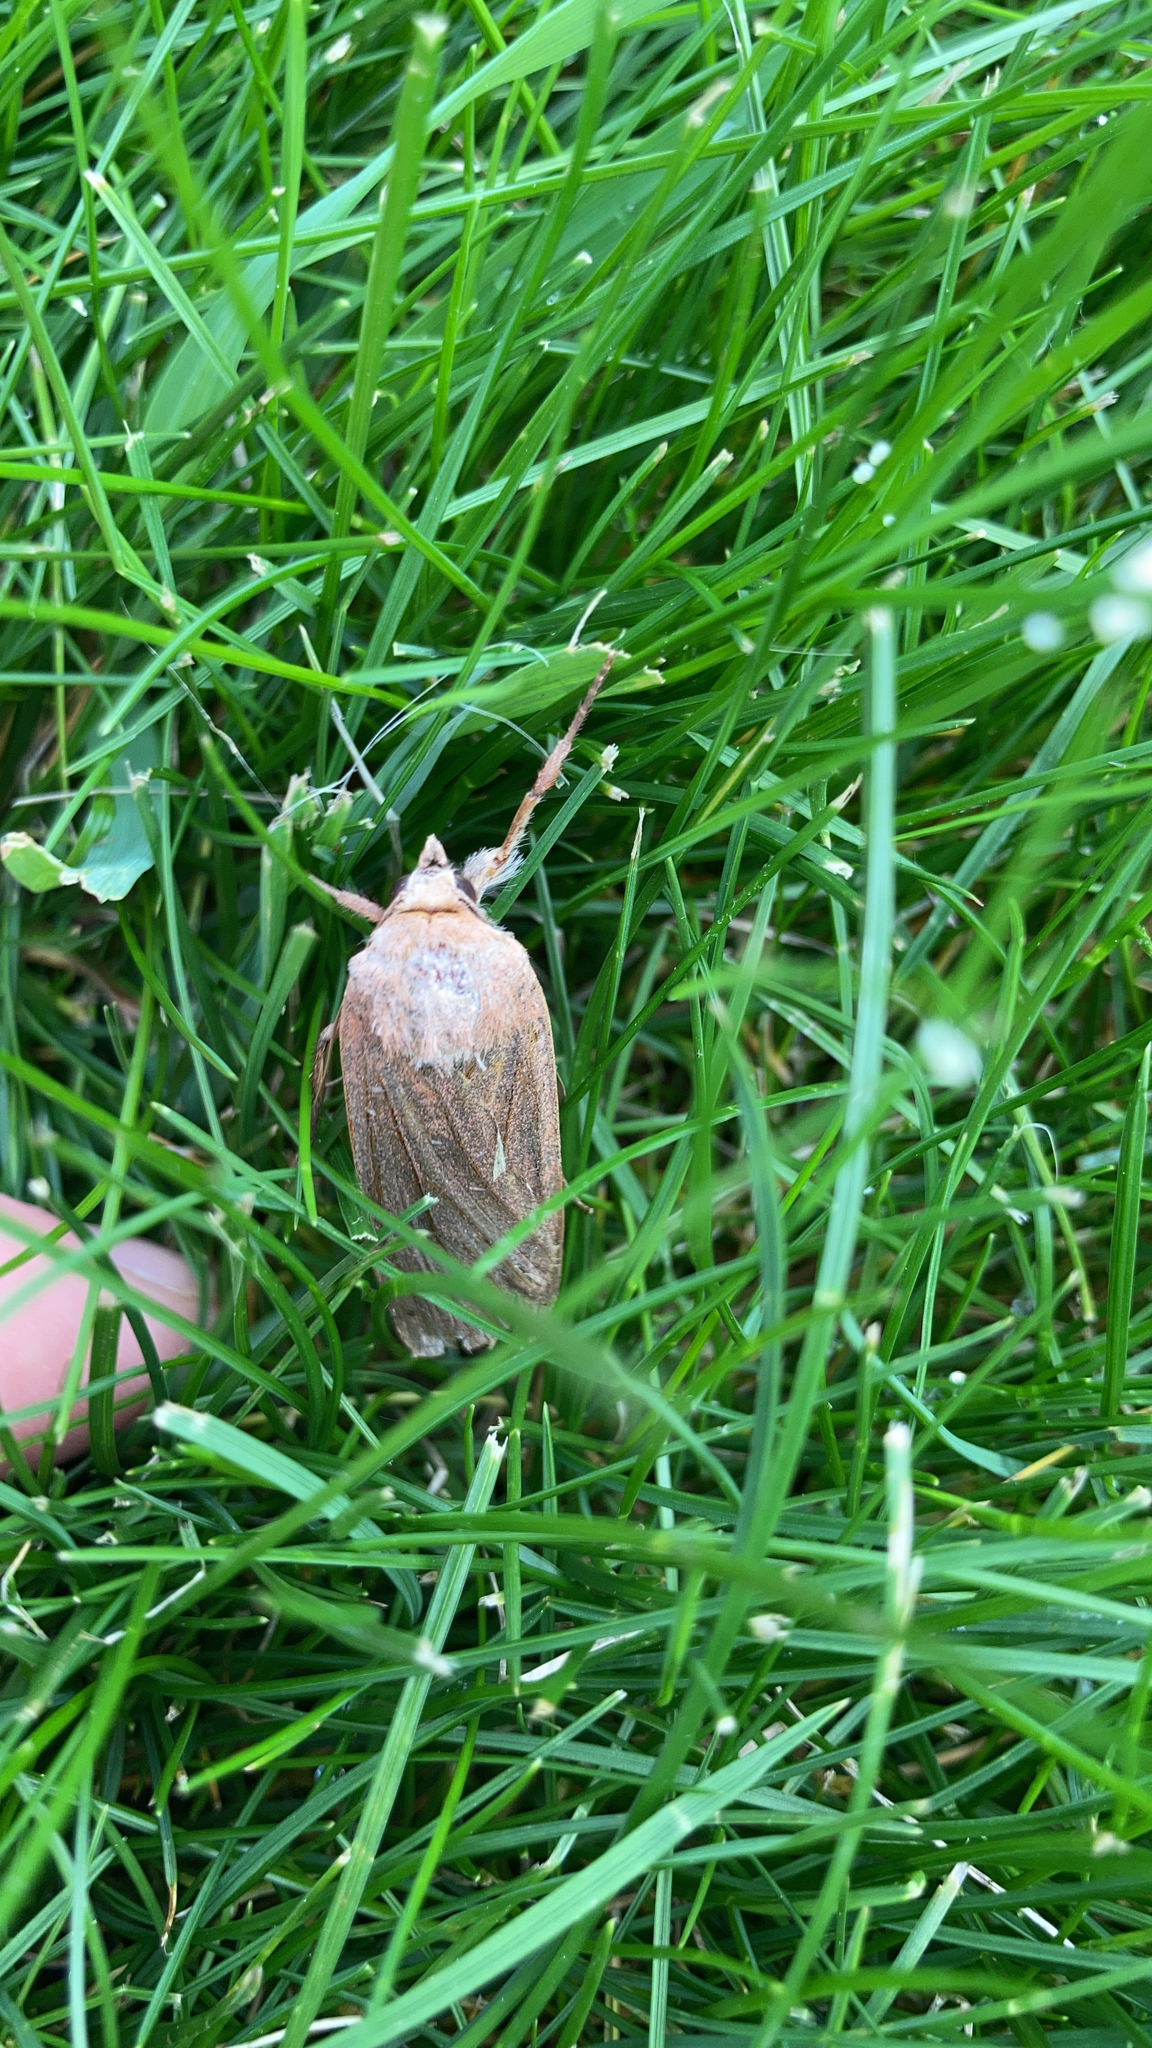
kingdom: Animalia
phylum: Arthropoda
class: Insecta
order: Lepidoptera
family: Noctuidae
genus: Noctua
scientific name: Noctua pronuba
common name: Large yellow underwing
